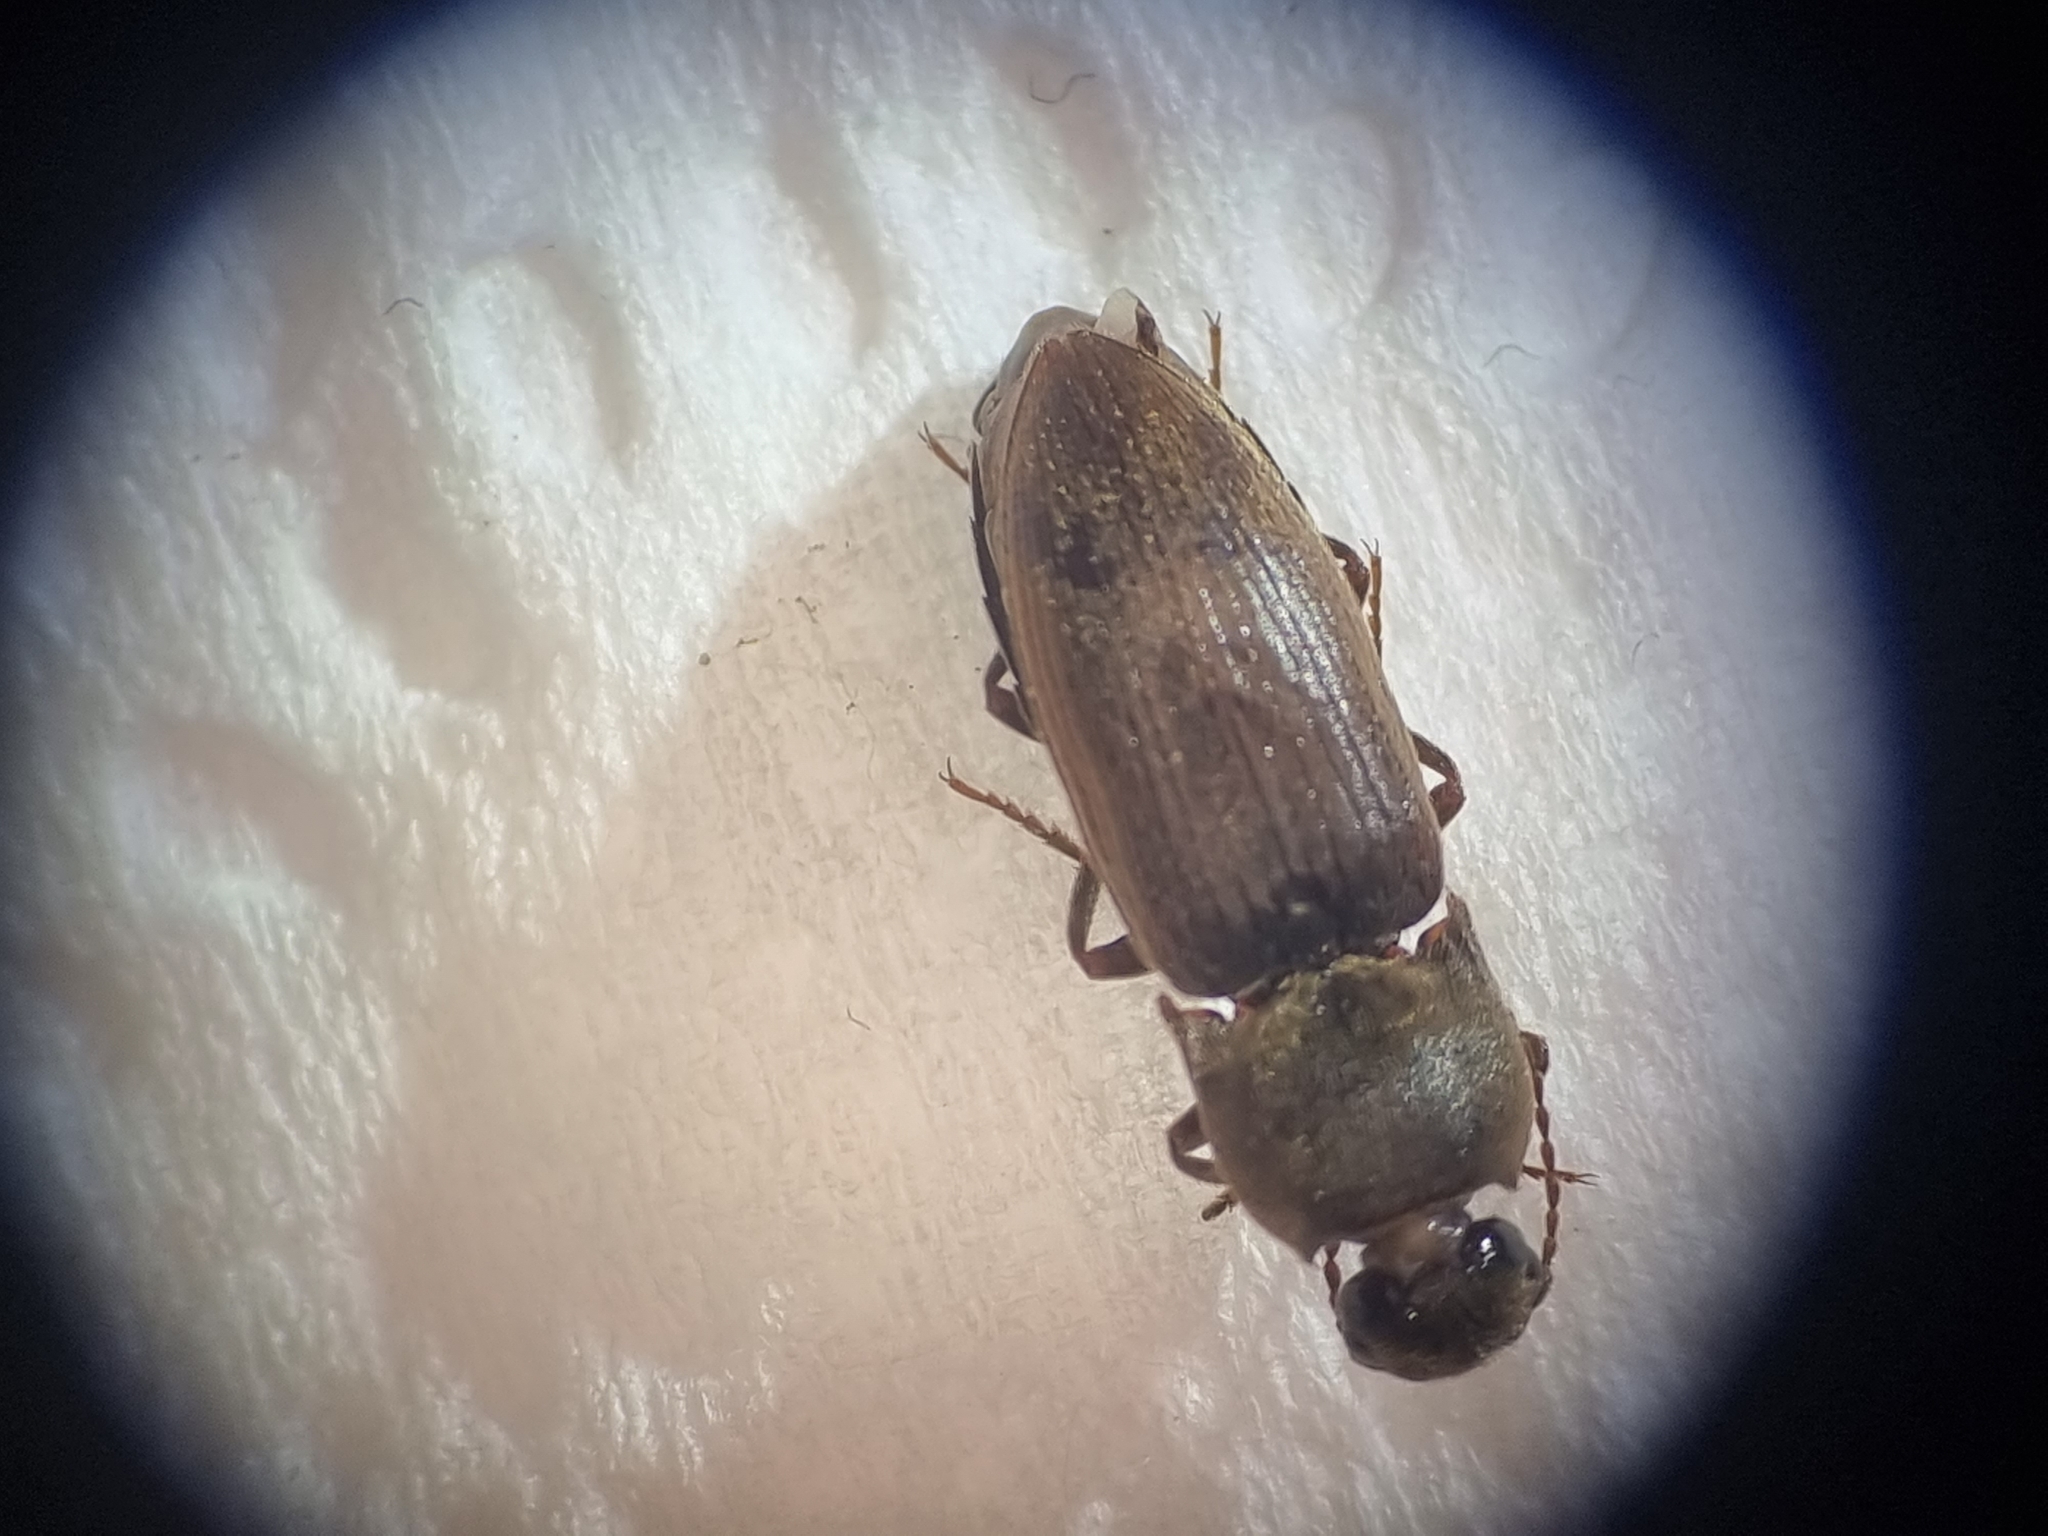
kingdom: Animalia
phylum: Arthropoda
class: Insecta
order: Coleoptera
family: Elateridae
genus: Agriotes
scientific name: Agriotes obscurus
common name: Dusky wireworm
